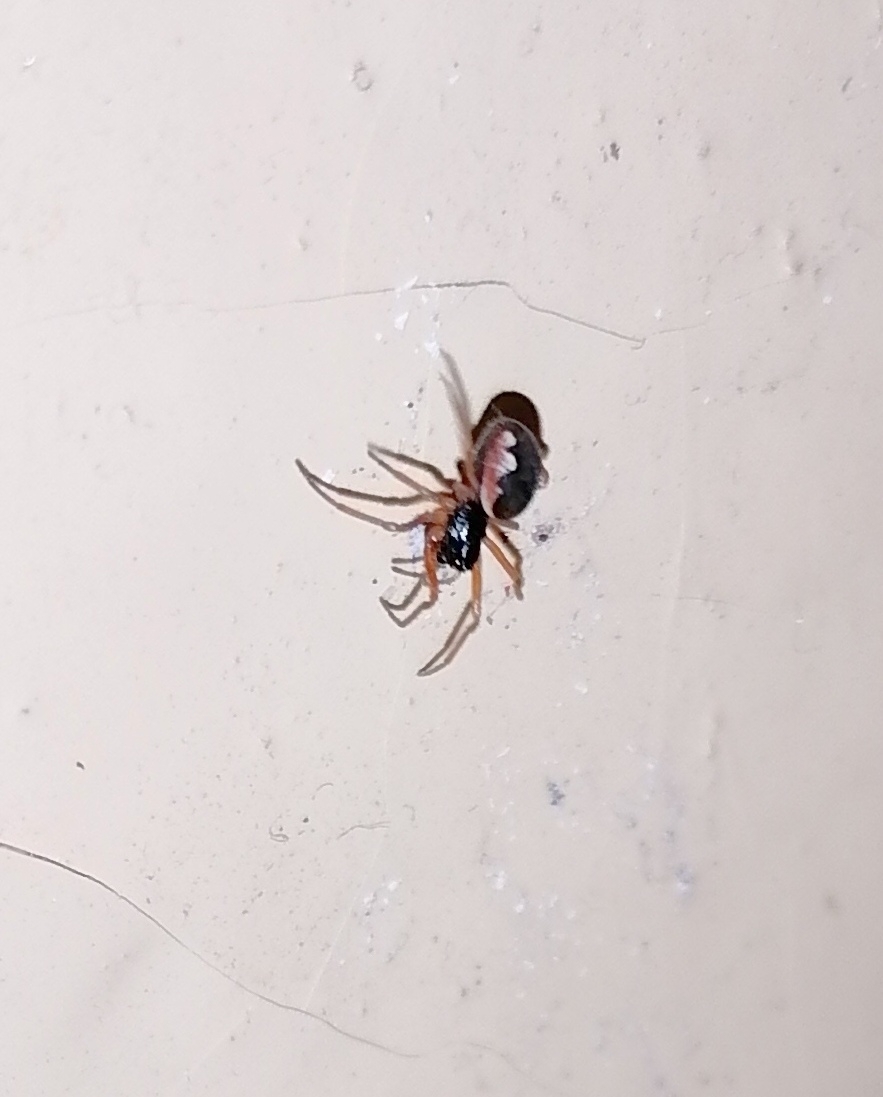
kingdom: Animalia
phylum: Arthropoda
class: Arachnida
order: Araneae
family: Tetragnathidae
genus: Pachygnatha
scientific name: Pachygnatha degeeri
